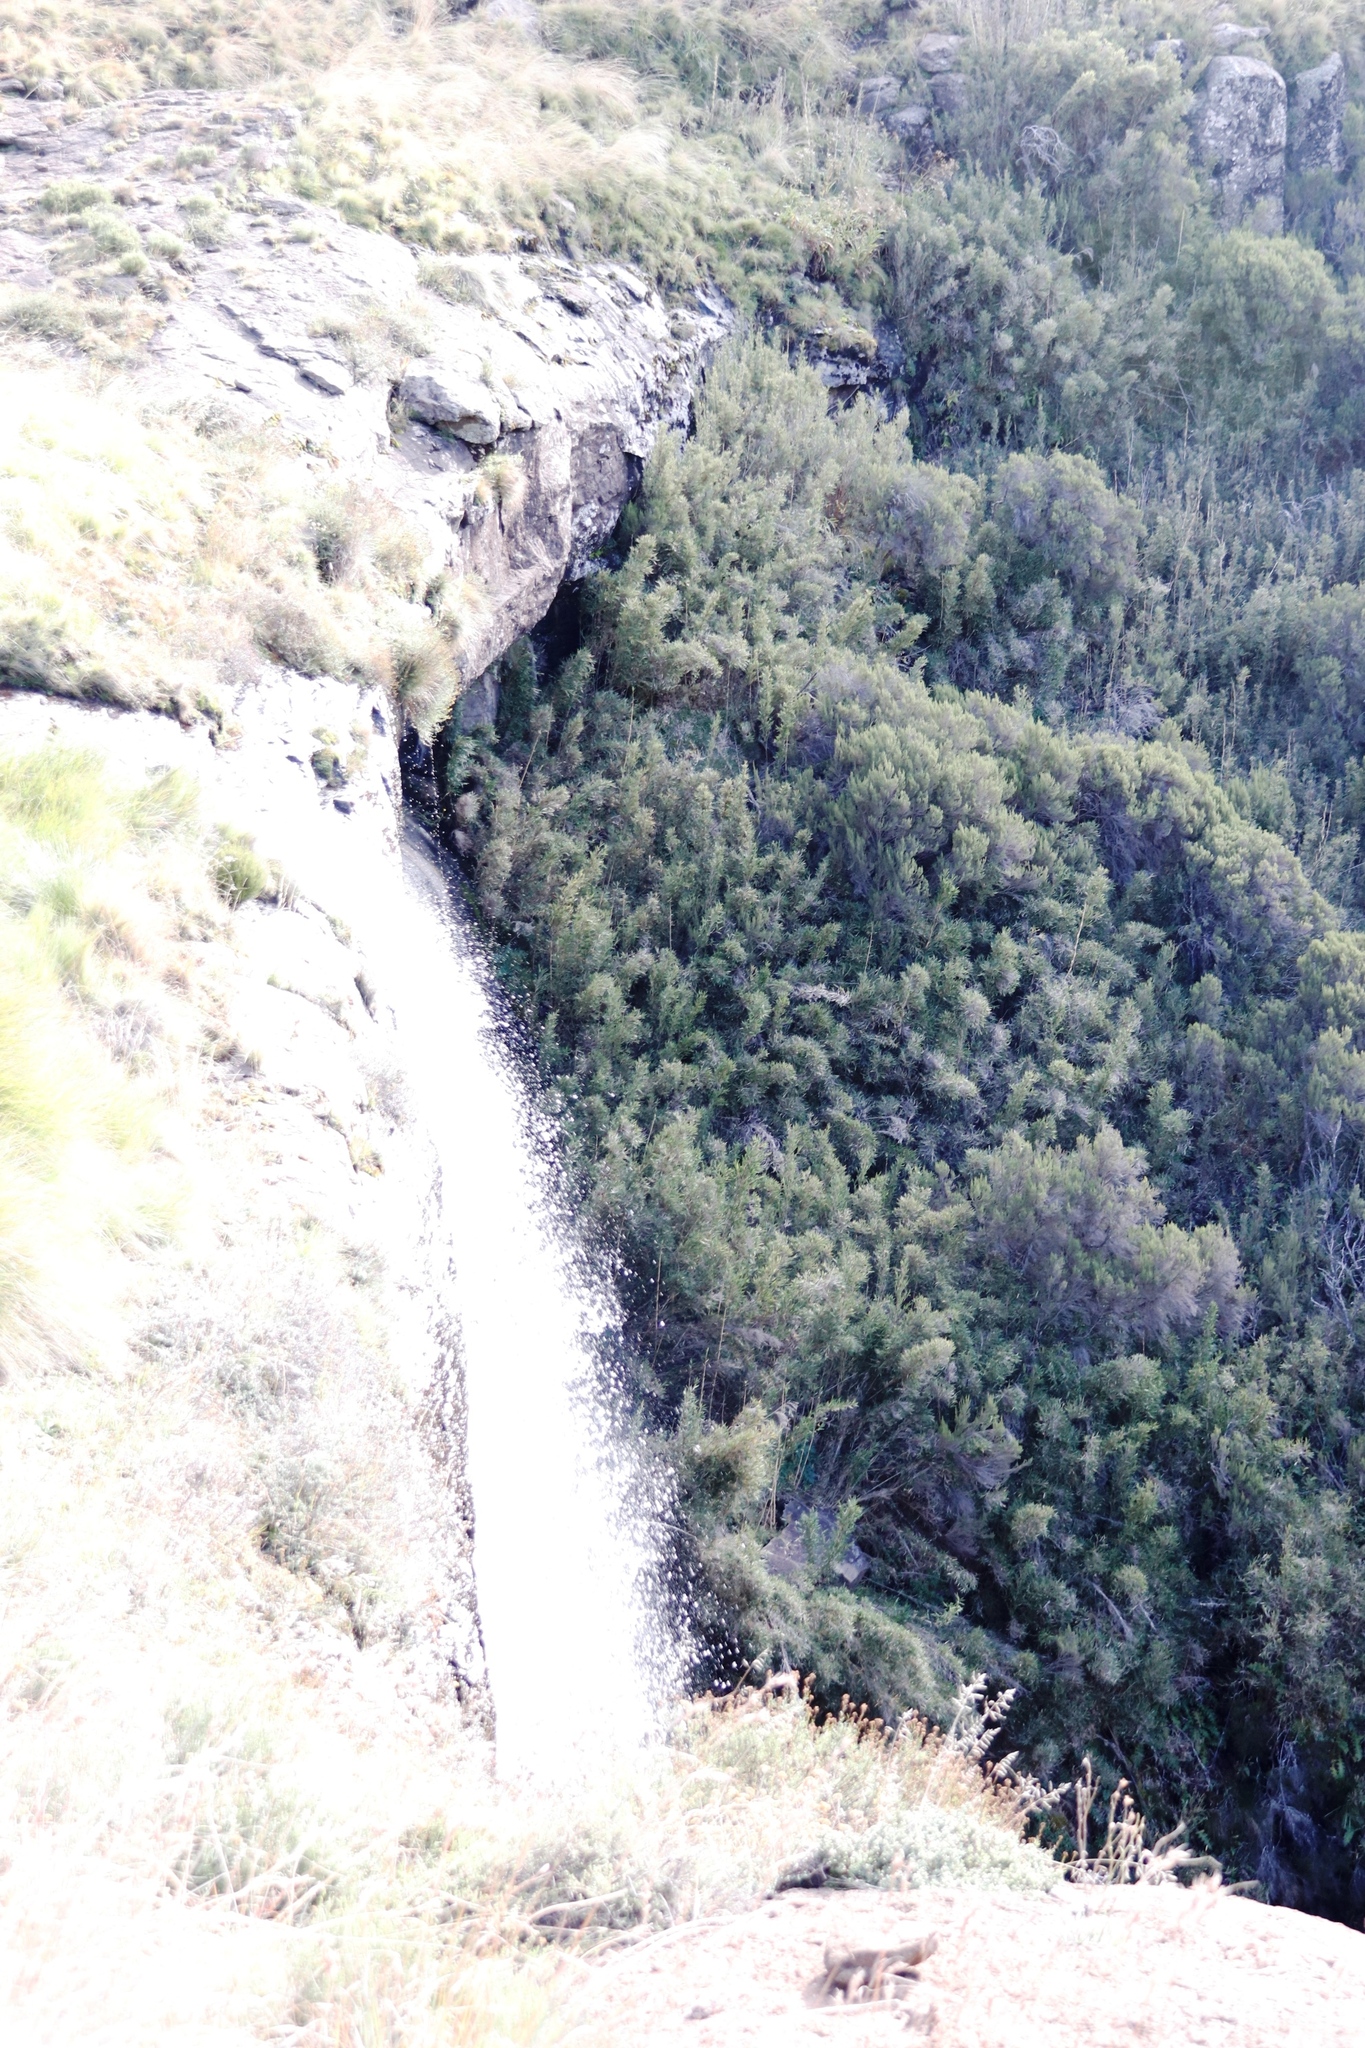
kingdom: Plantae
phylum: Tracheophyta
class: Liliopsida
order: Poales
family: Poaceae
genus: Bergbambos
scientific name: Bergbambos tessellata
